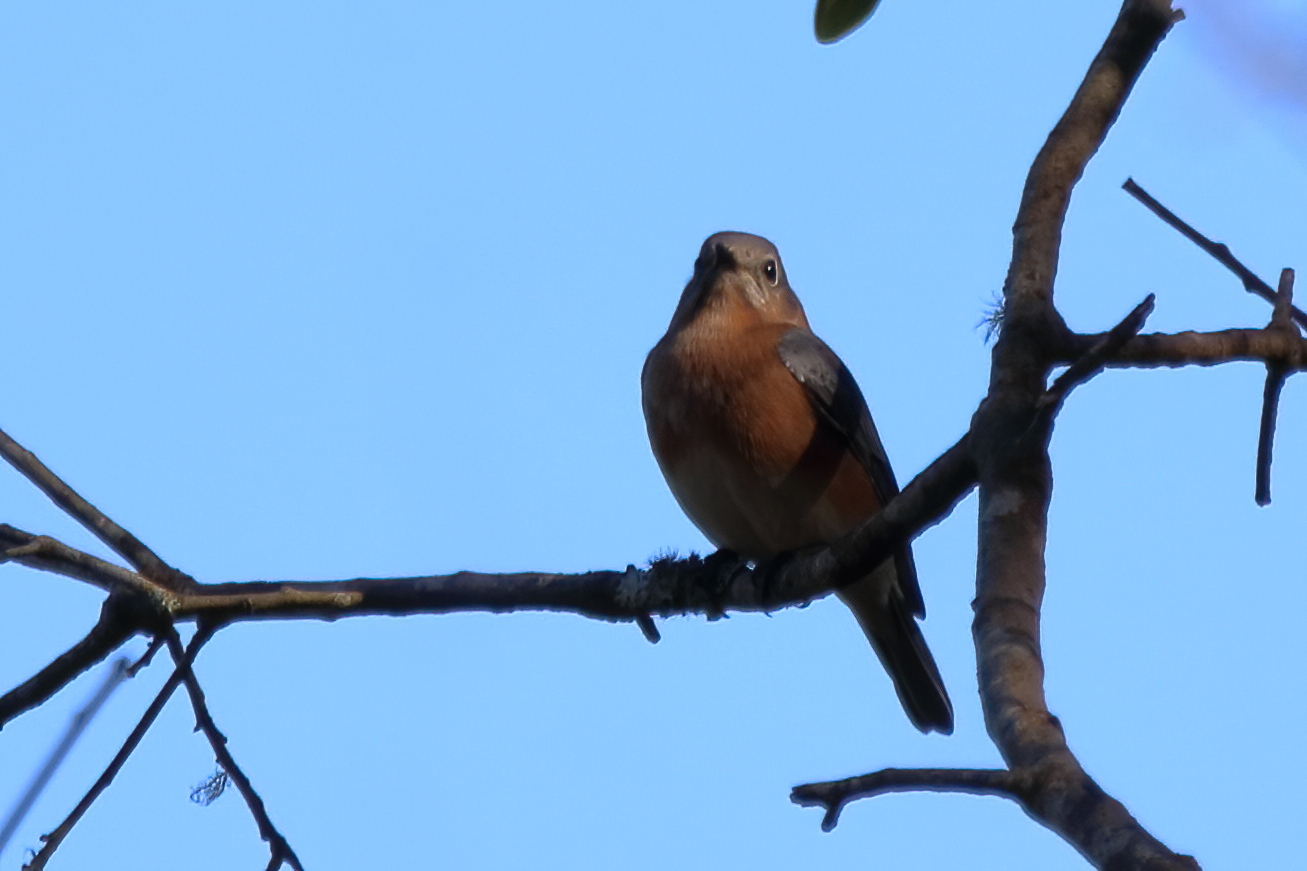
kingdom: Animalia
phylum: Chordata
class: Aves
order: Passeriformes
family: Turdidae
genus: Sialia
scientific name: Sialia sialis
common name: Eastern bluebird
